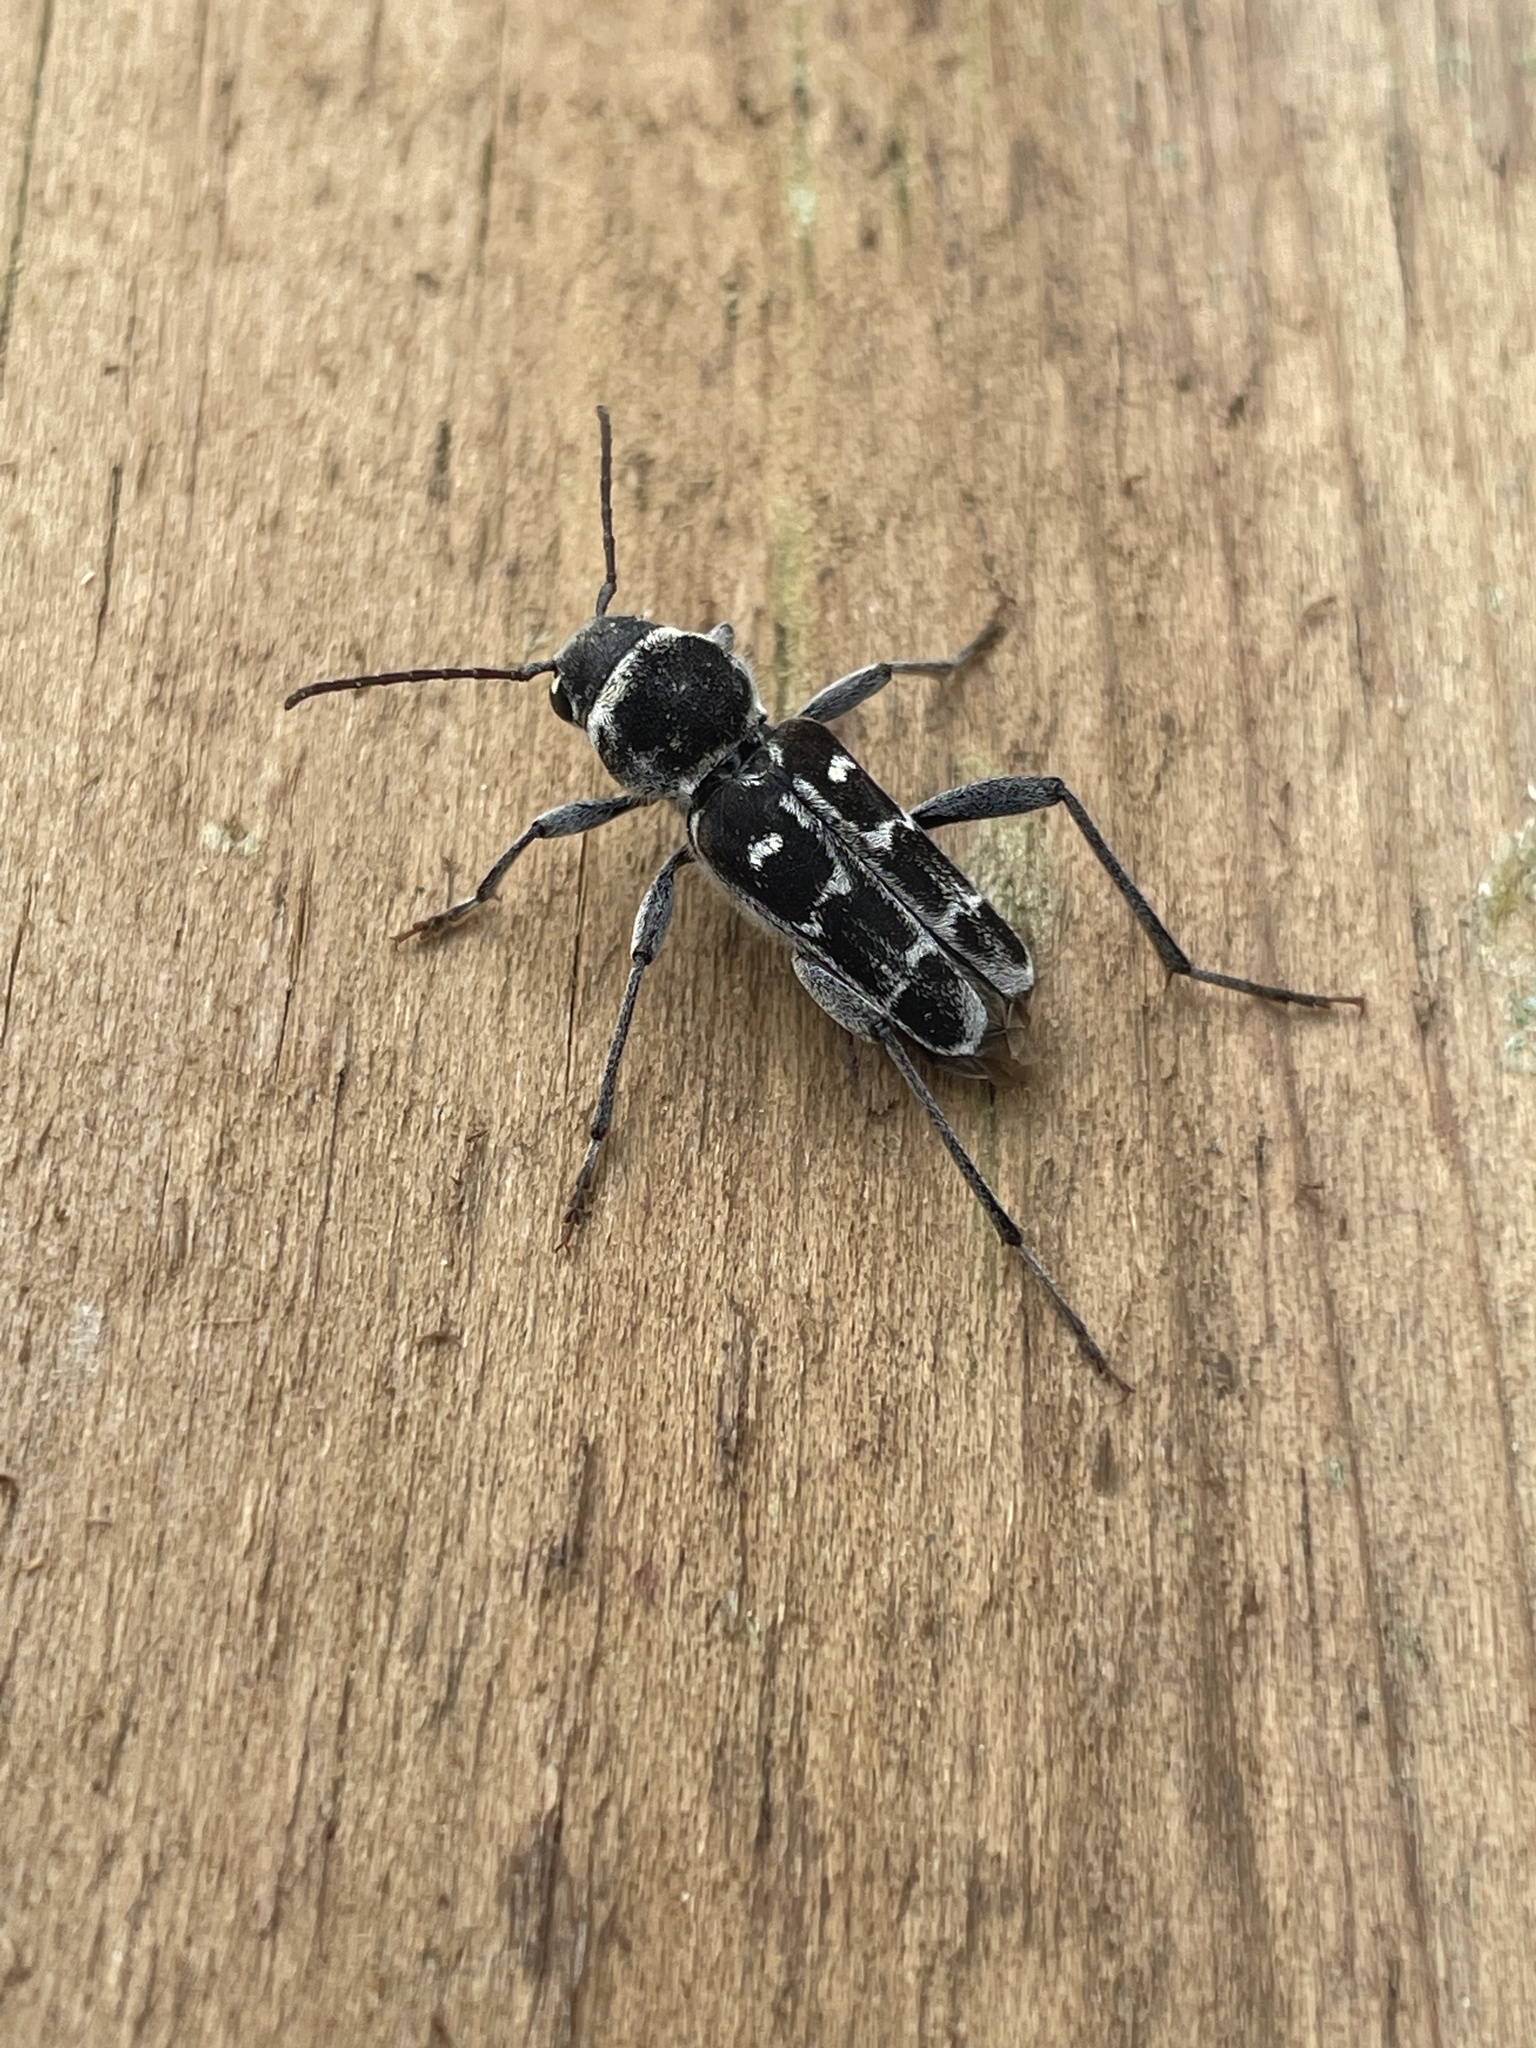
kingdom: Animalia
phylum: Arthropoda
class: Insecta
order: Coleoptera
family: Cerambycidae
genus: Xylotrechus
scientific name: Xylotrechus undulatus
